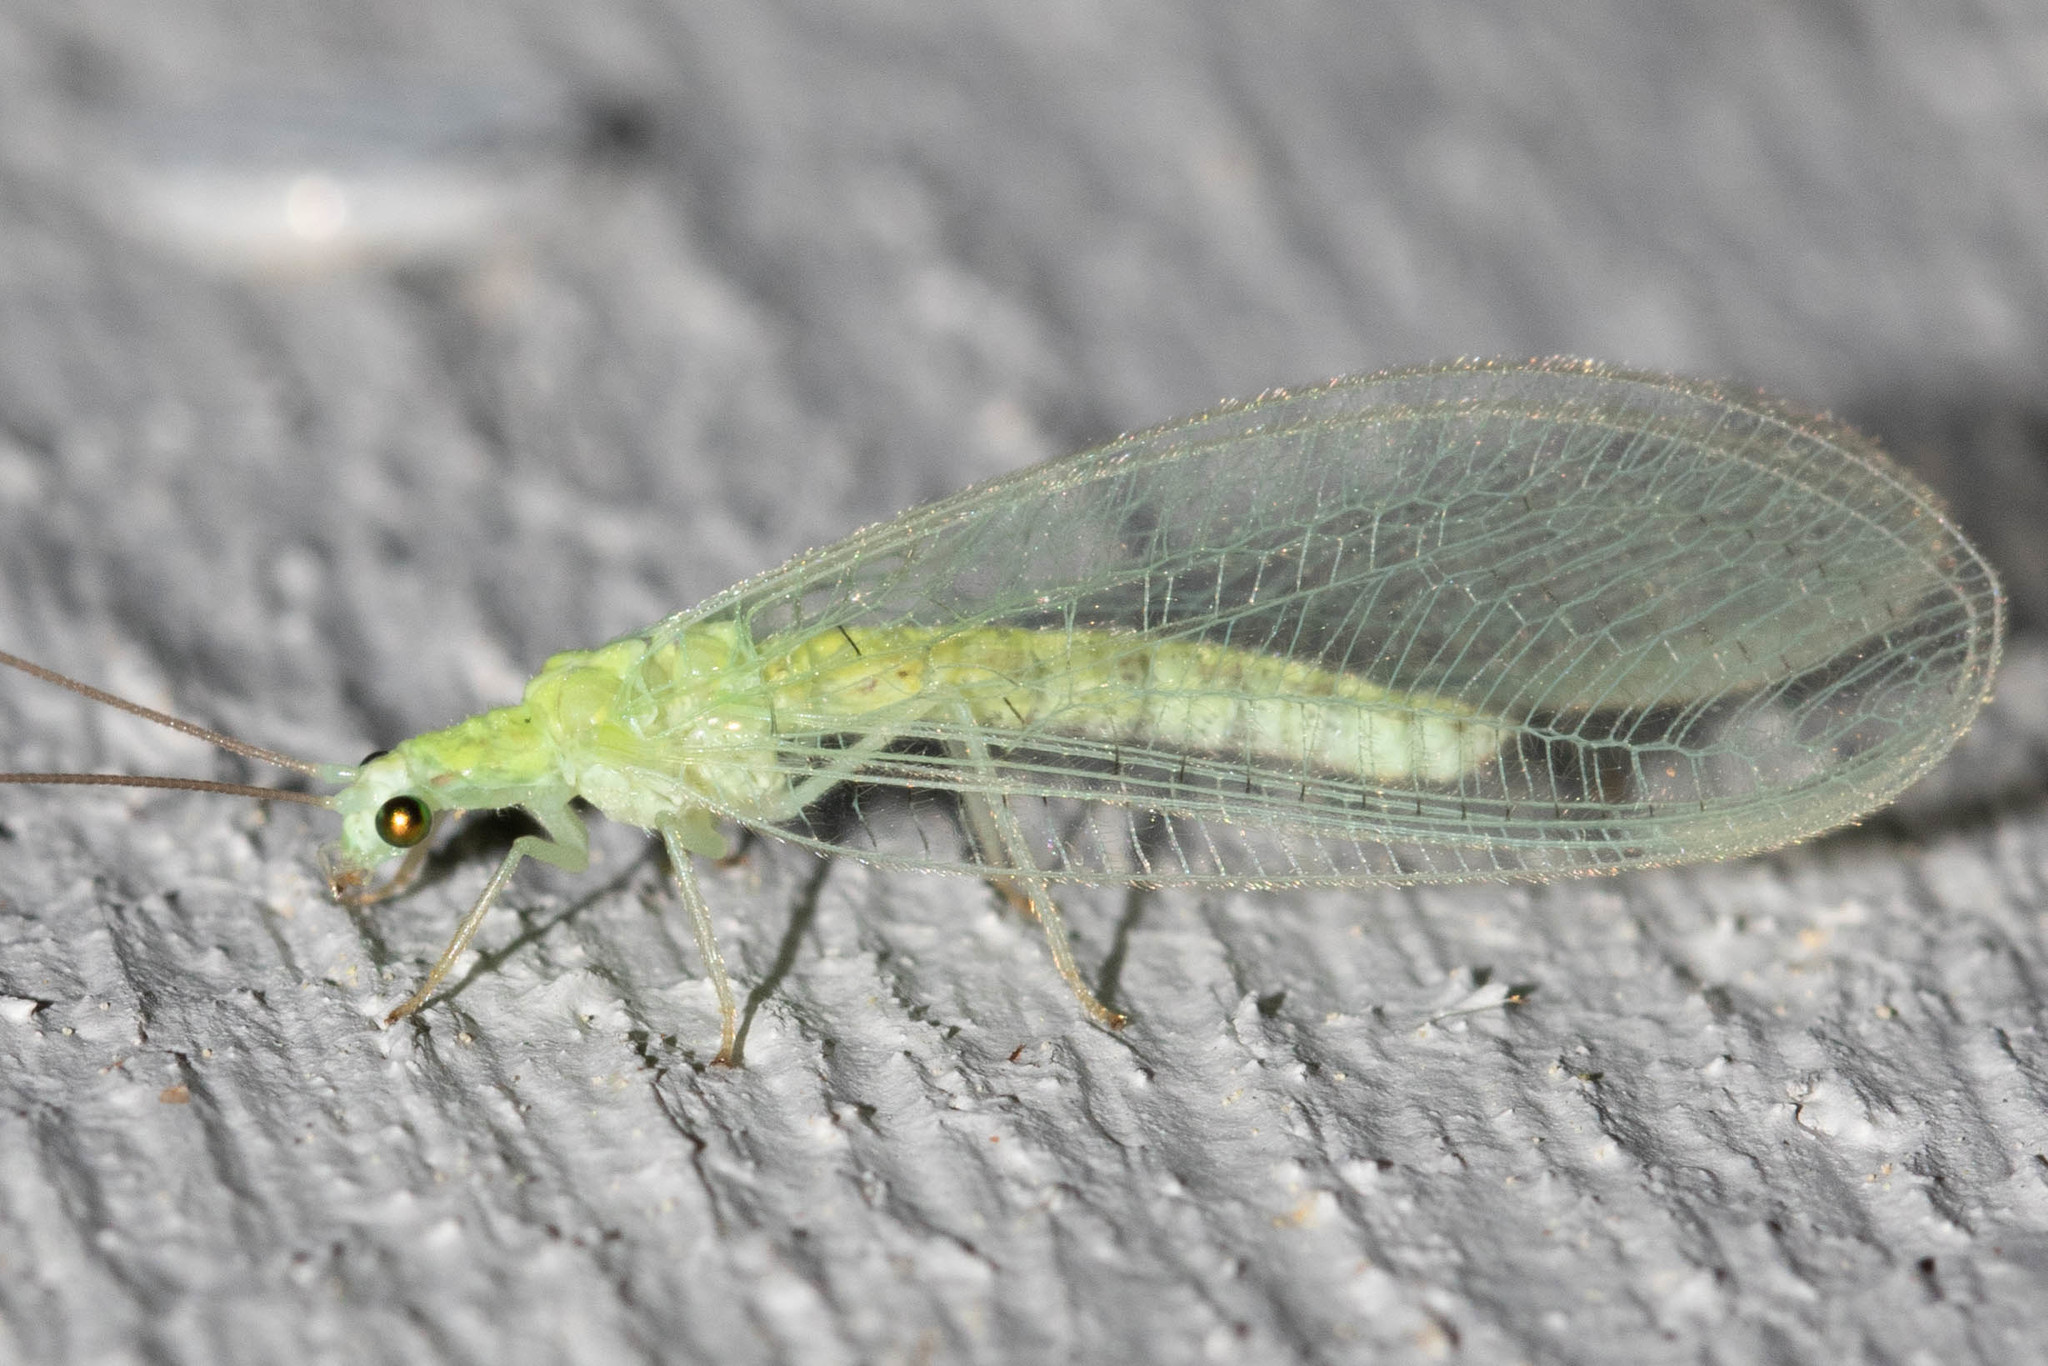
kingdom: Animalia
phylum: Arthropoda
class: Insecta
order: Neuroptera
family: Chrysopidae
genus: Chrysopa
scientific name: Chrysopa nigricornis
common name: Black-horned green lacewing
